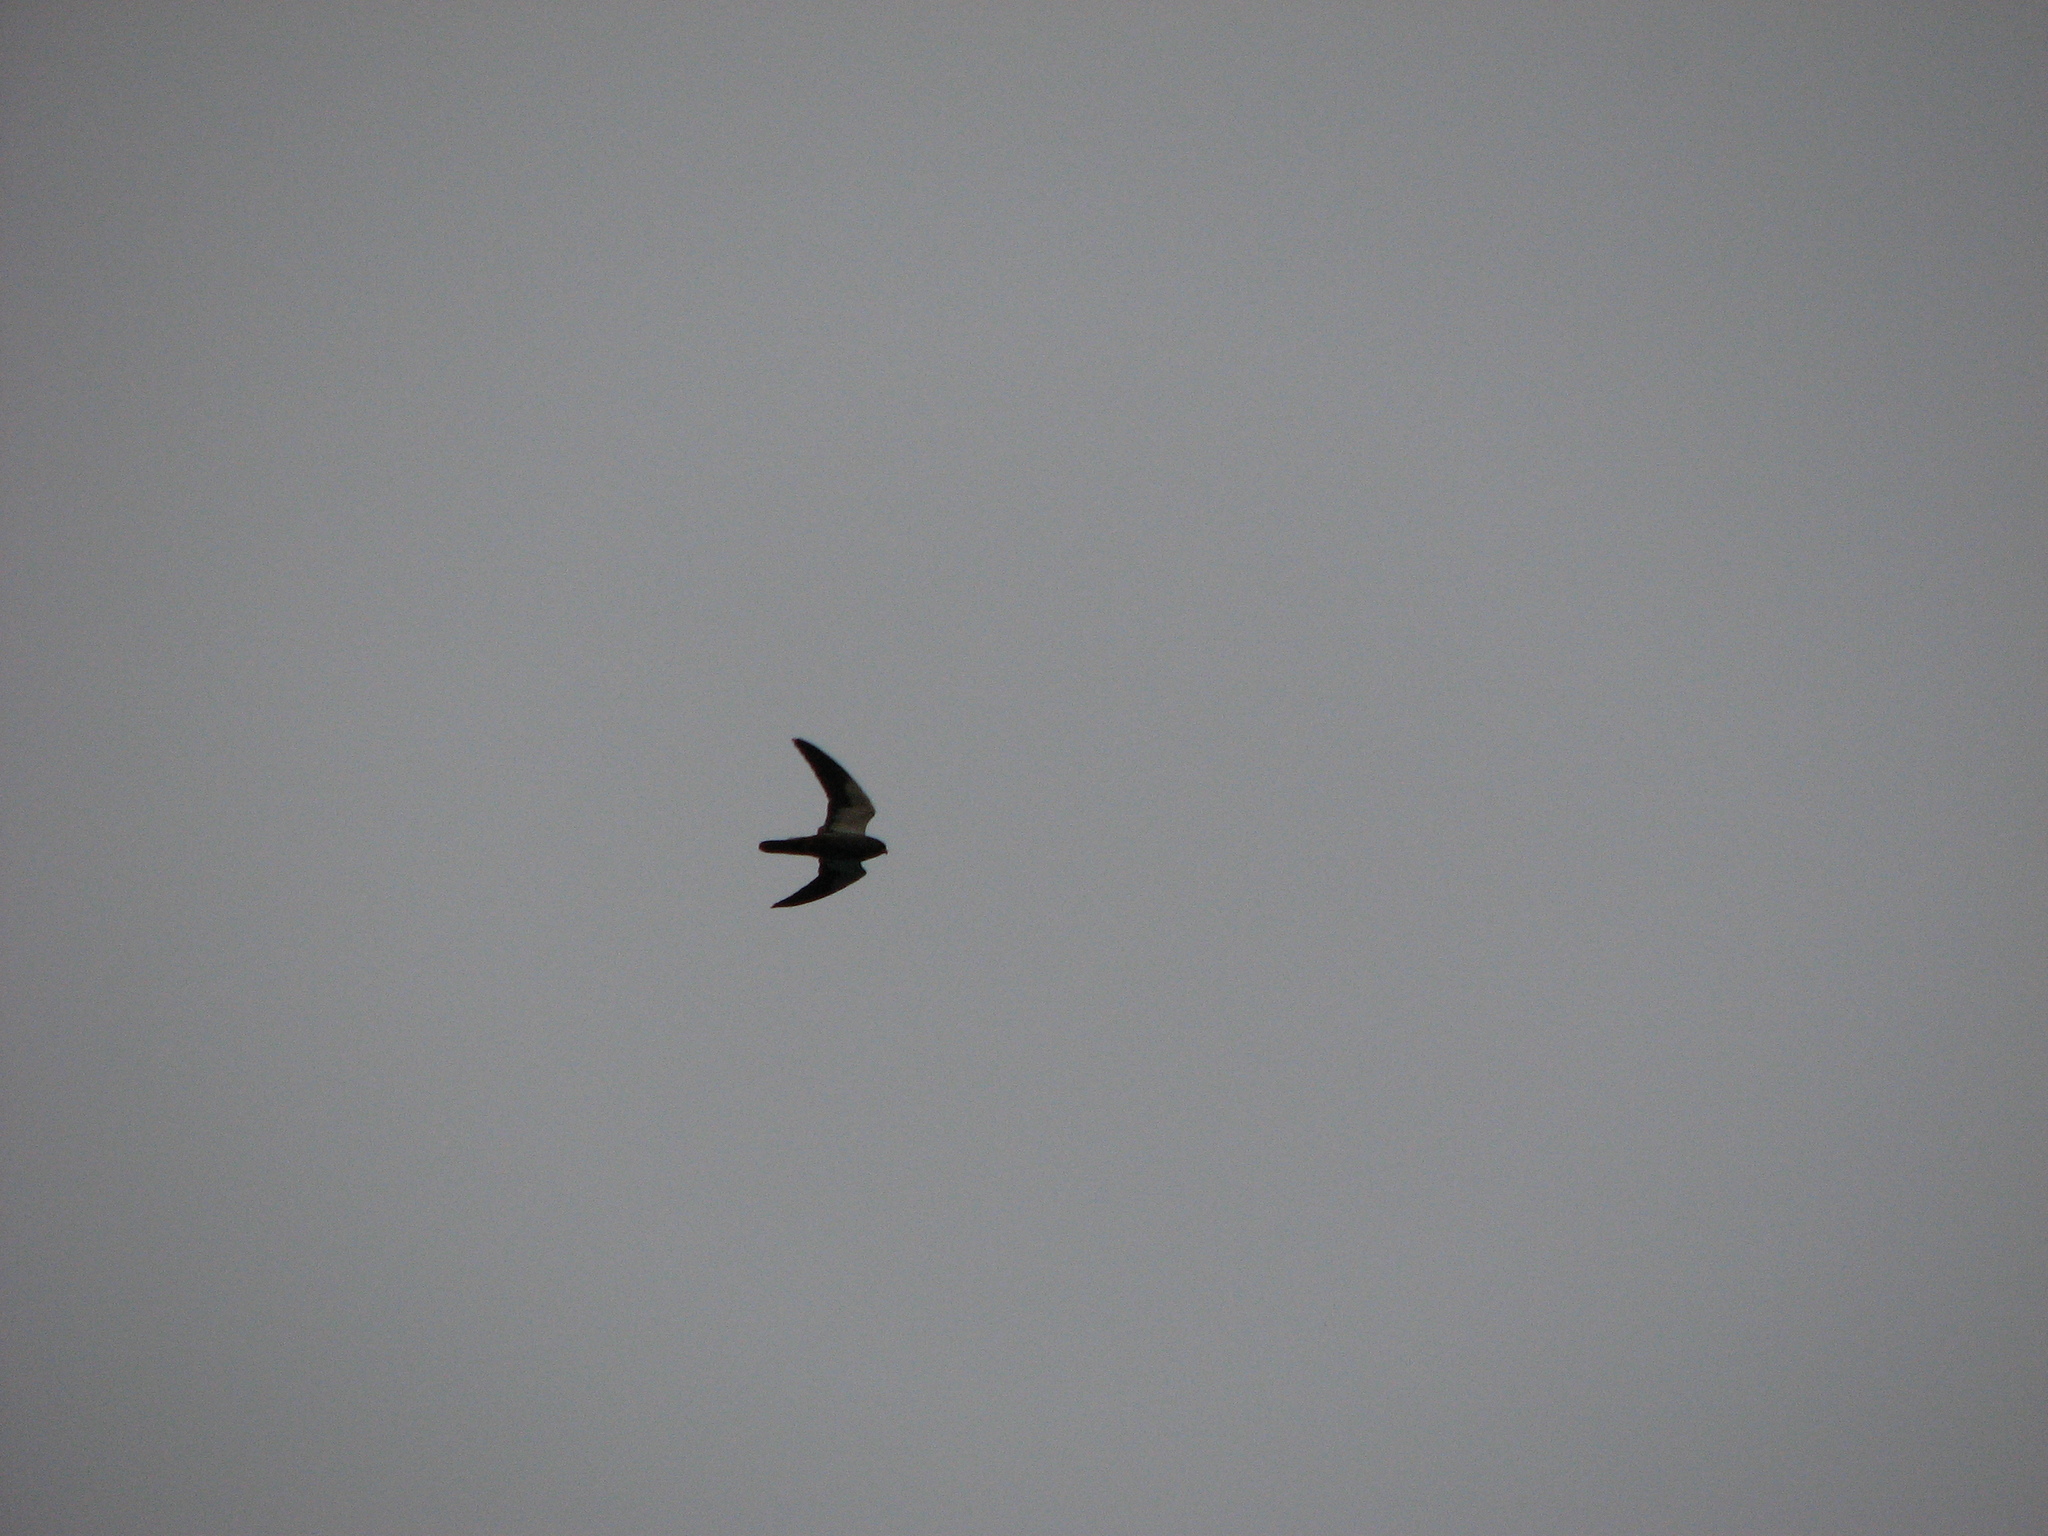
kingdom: Animalia
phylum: Chordata
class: Aves
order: Falconiformes
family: Falconidae
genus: Falco
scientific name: Falco amurensis
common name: Amur falcon
